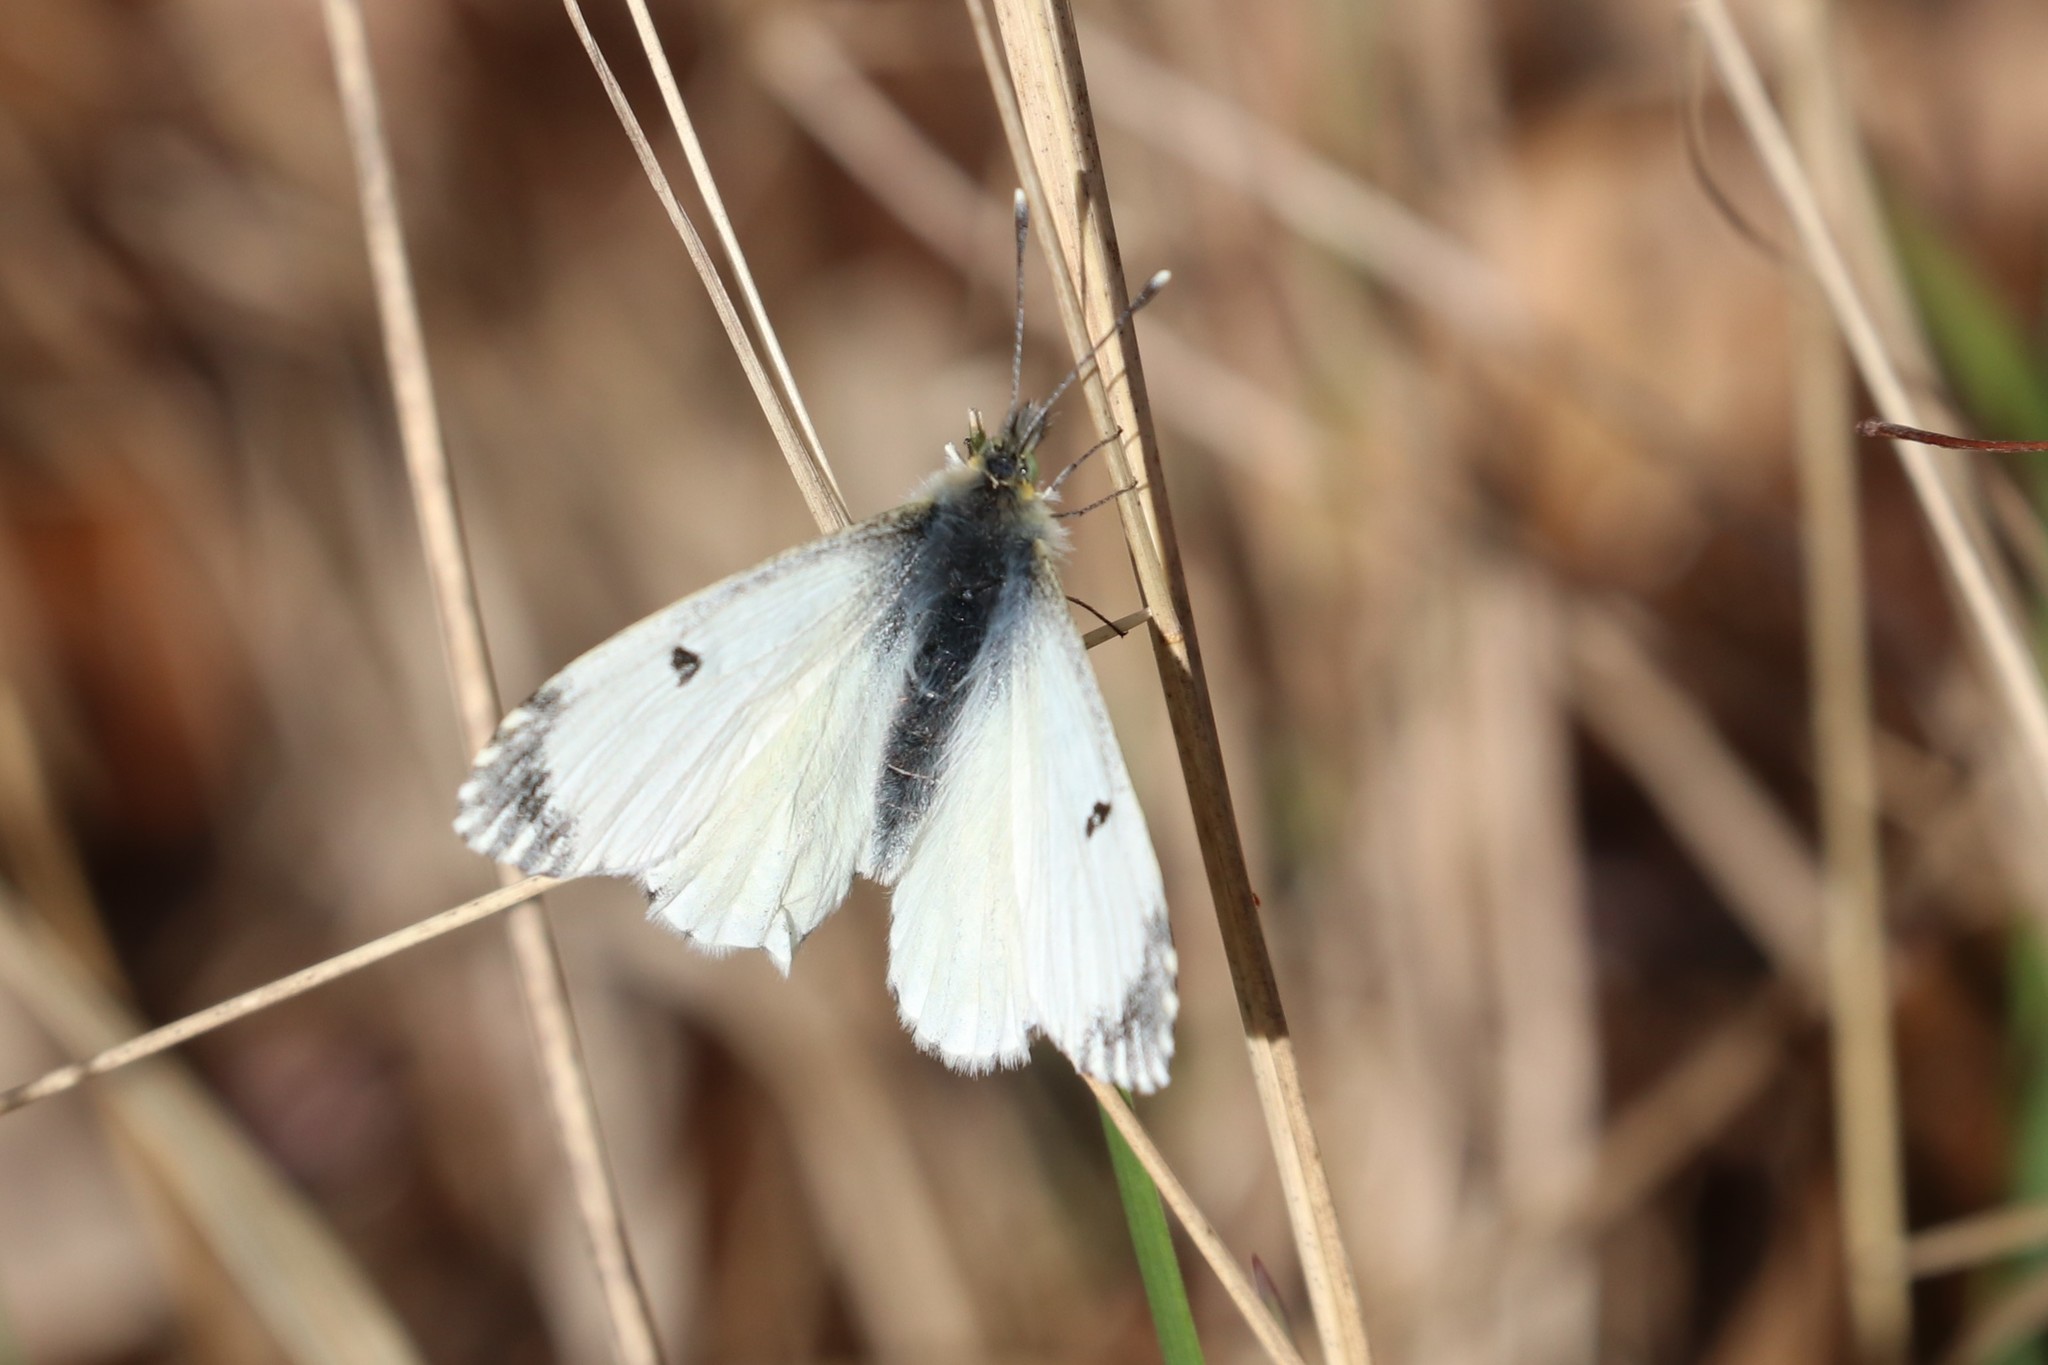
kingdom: Animalia
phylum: Arthropoda
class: Insecta
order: Lepidoptera
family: Pieridae
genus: Anthocharis
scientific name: Anthocharis cardamines
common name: Orange-tip
